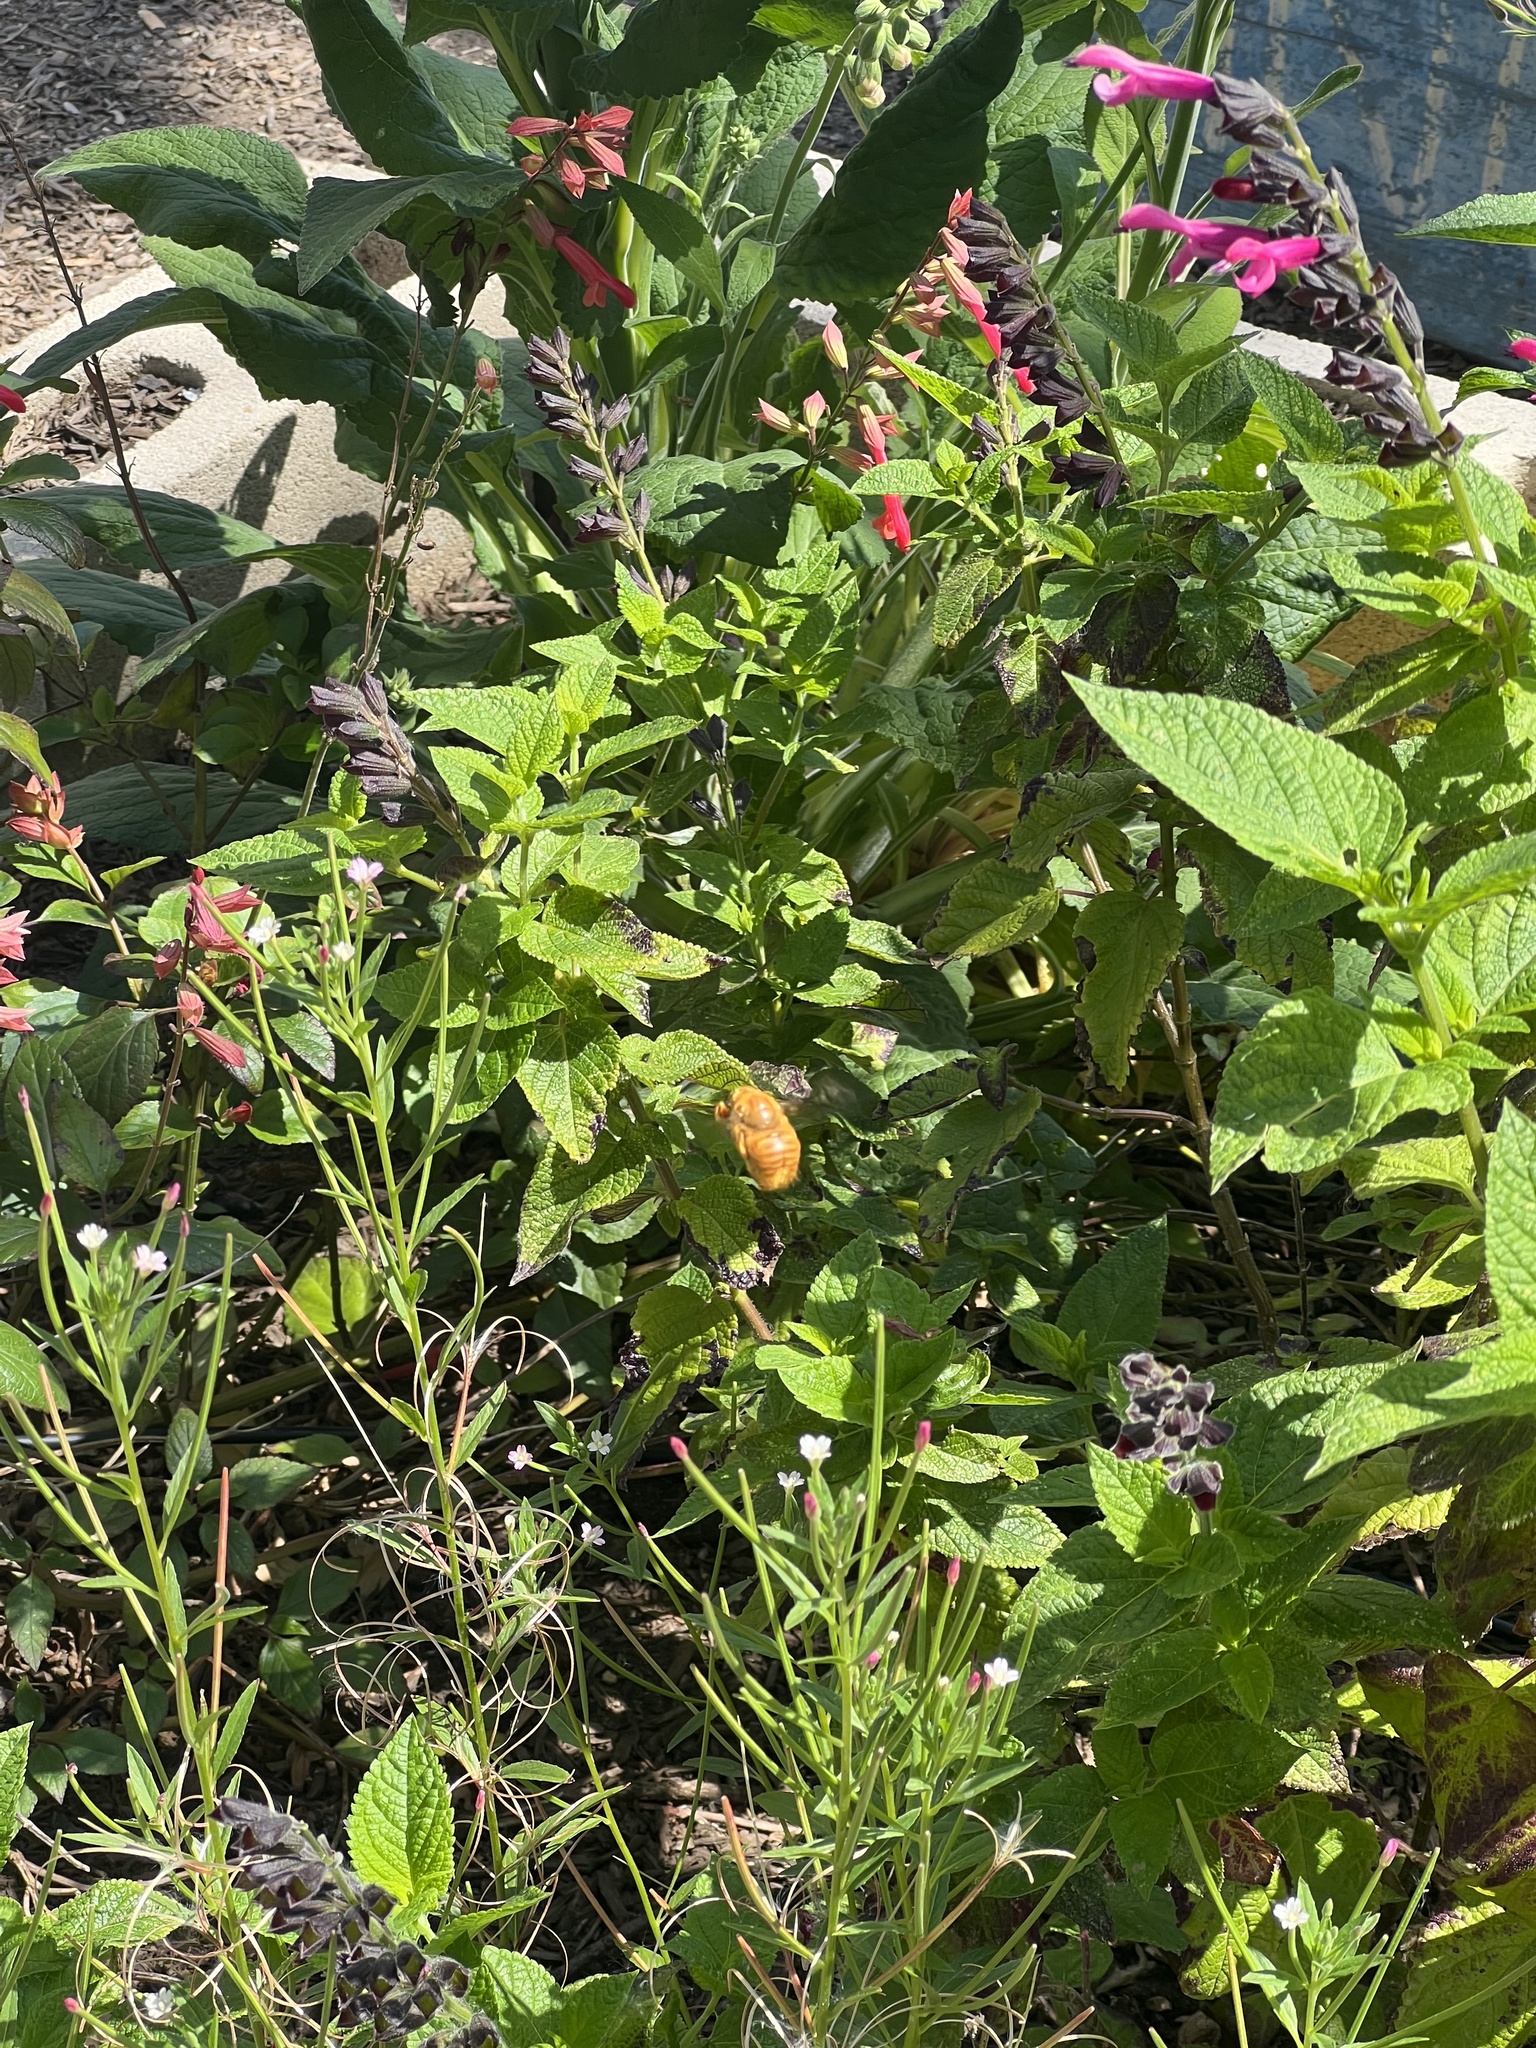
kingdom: Animalia
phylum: Arthropoda
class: Insecta
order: Hymenoptera
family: Apidae
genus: Xylocopa
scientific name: Xylocopa sonorina
